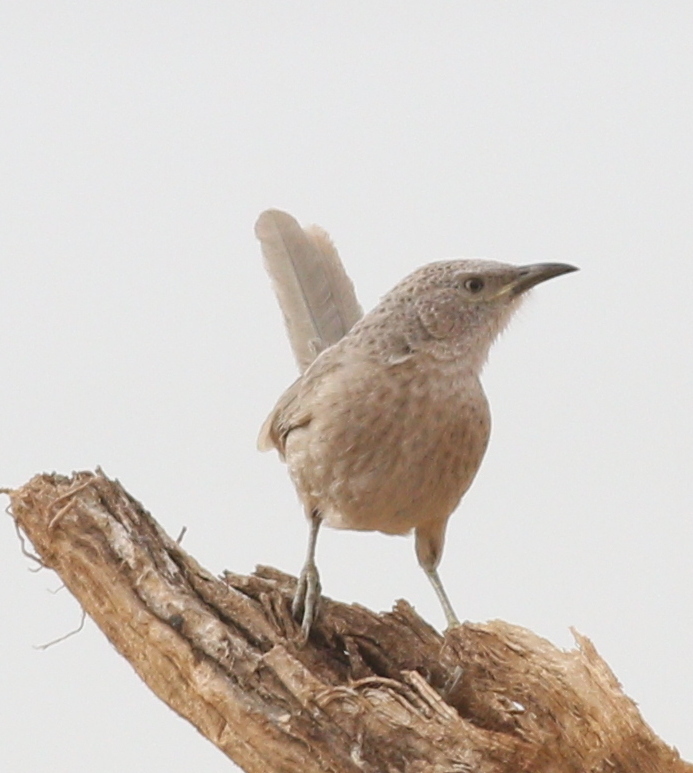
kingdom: Animalia
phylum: Chordata
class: Aves
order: Passeriformes
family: Leiothrichidae
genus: Turdoides
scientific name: Turdoides squamiceps
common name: Arabian babbler
